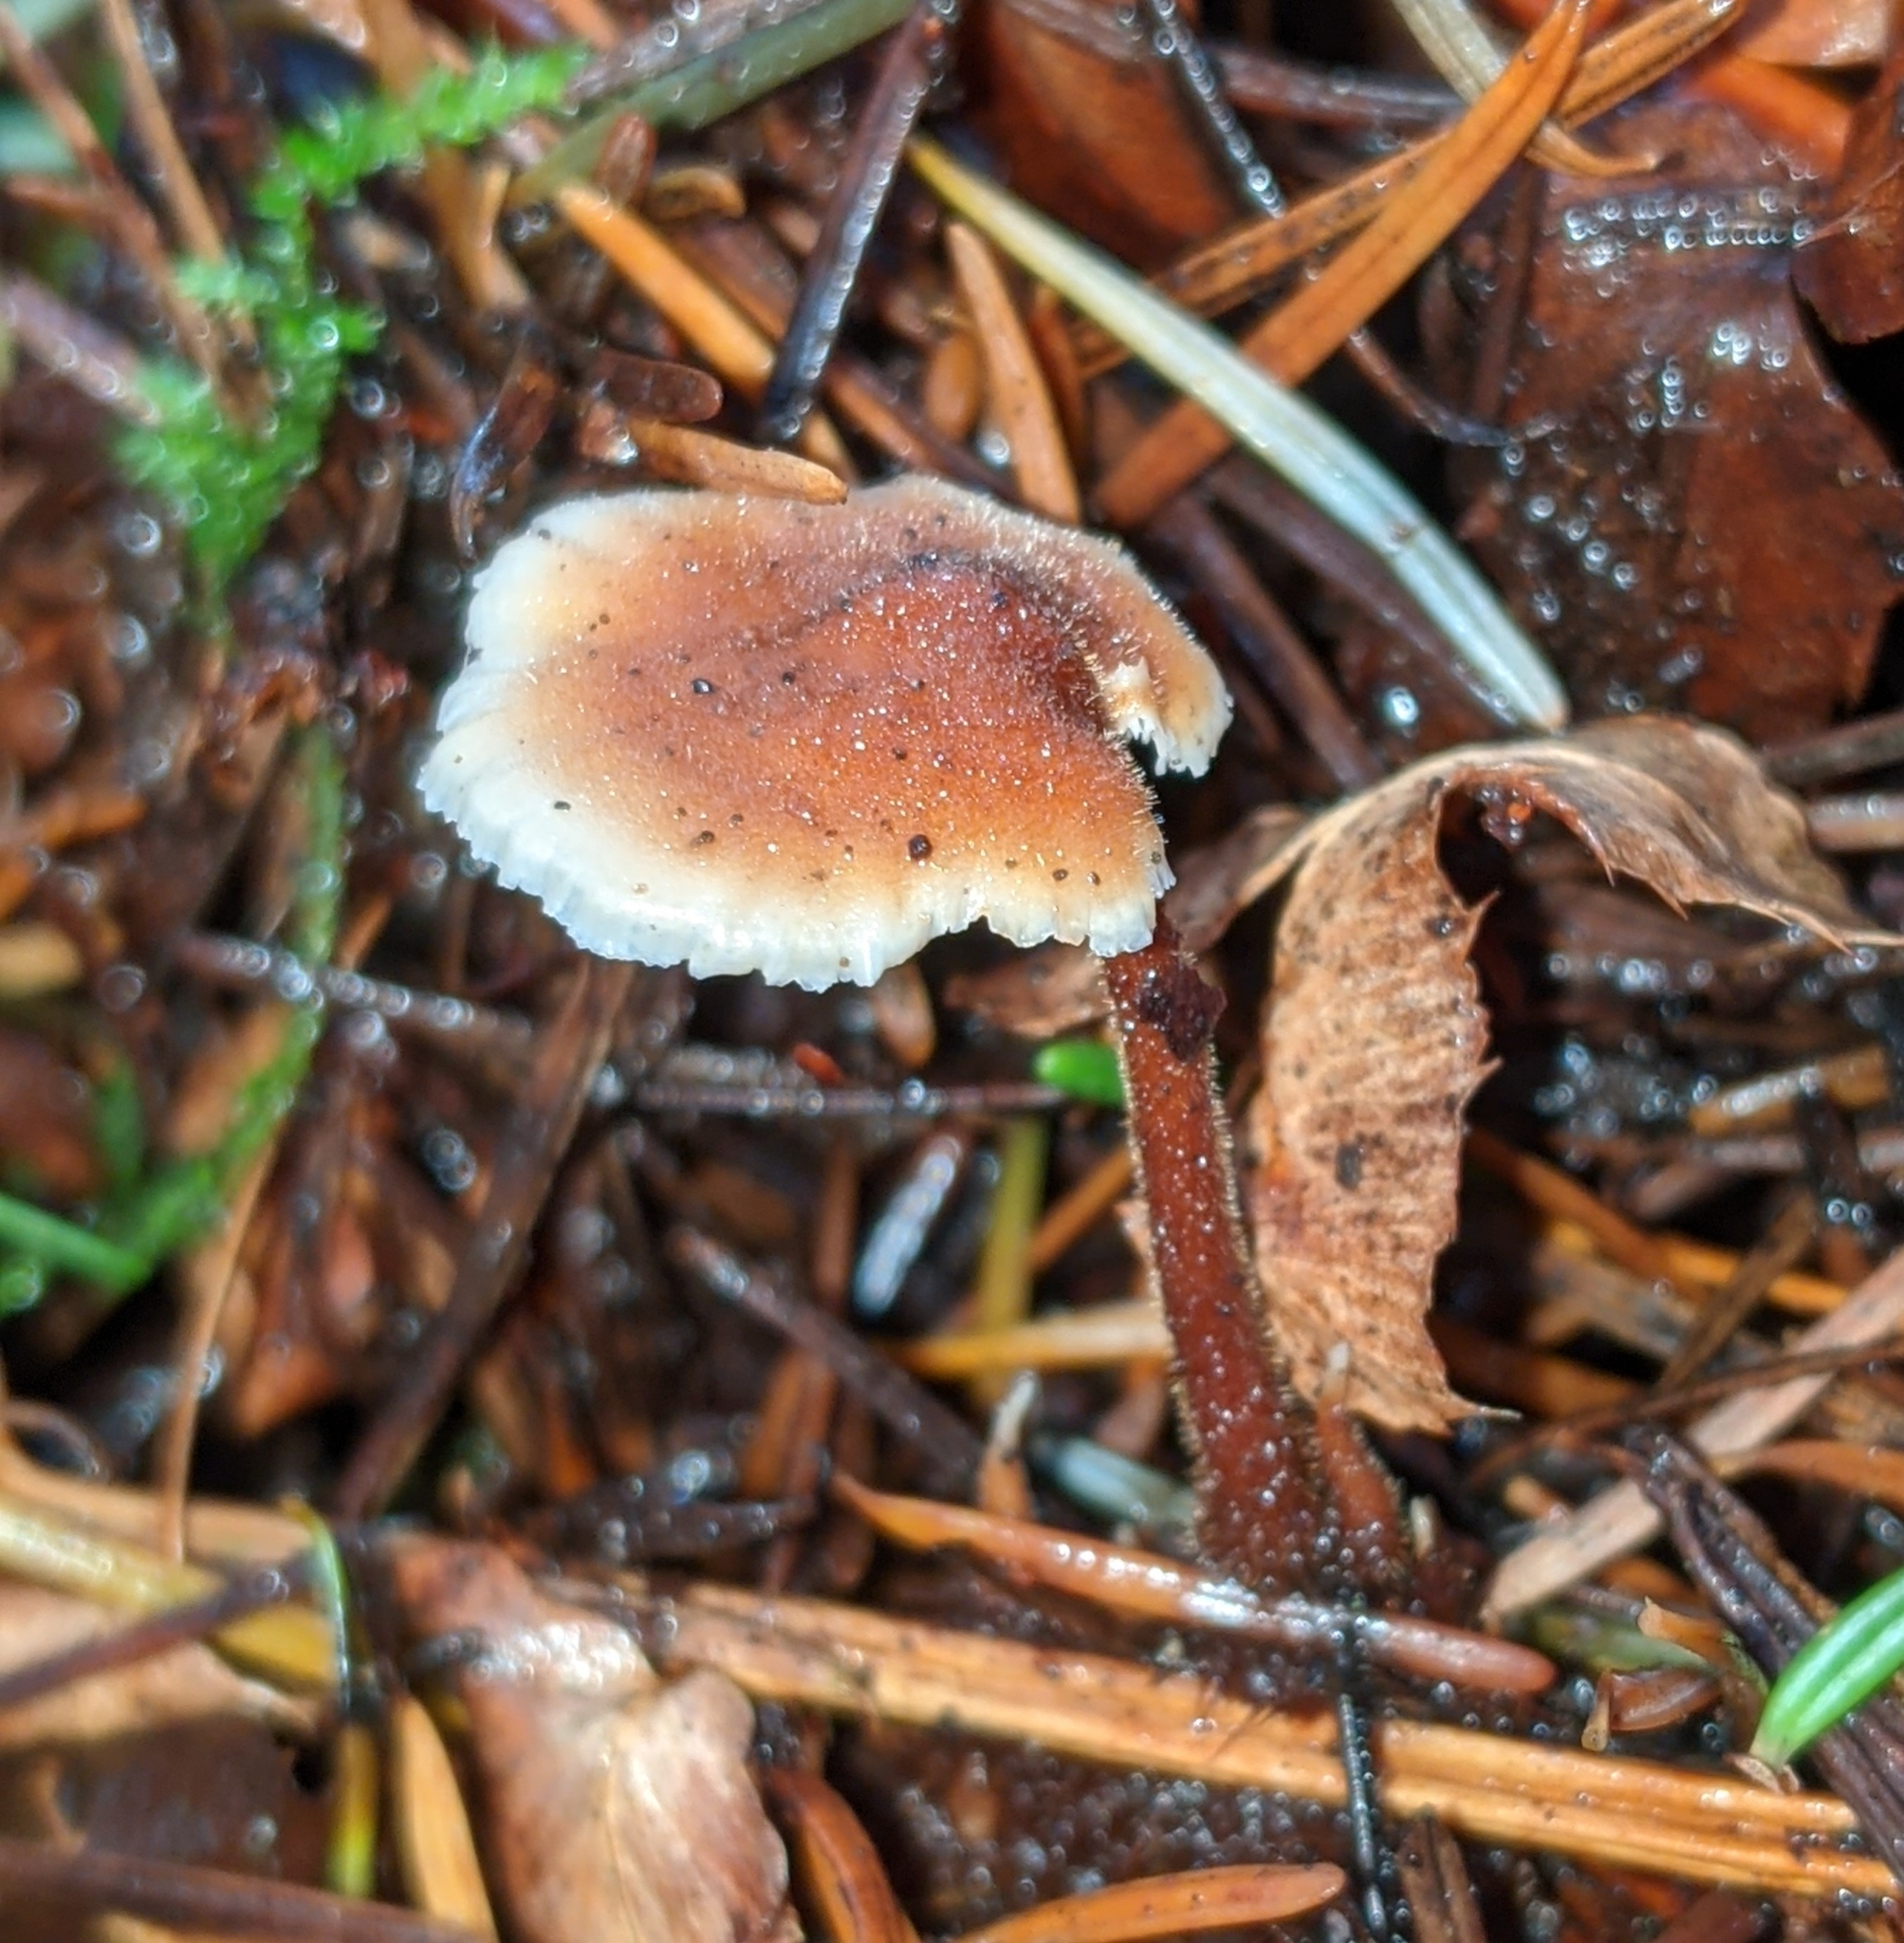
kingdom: Fungi
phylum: Basidiomycota
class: Agaricomycetes
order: Russulales
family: Auriscalpiaceae
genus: Auriscalpium
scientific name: Auriscalpium vulgare
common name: Earpick fungus
